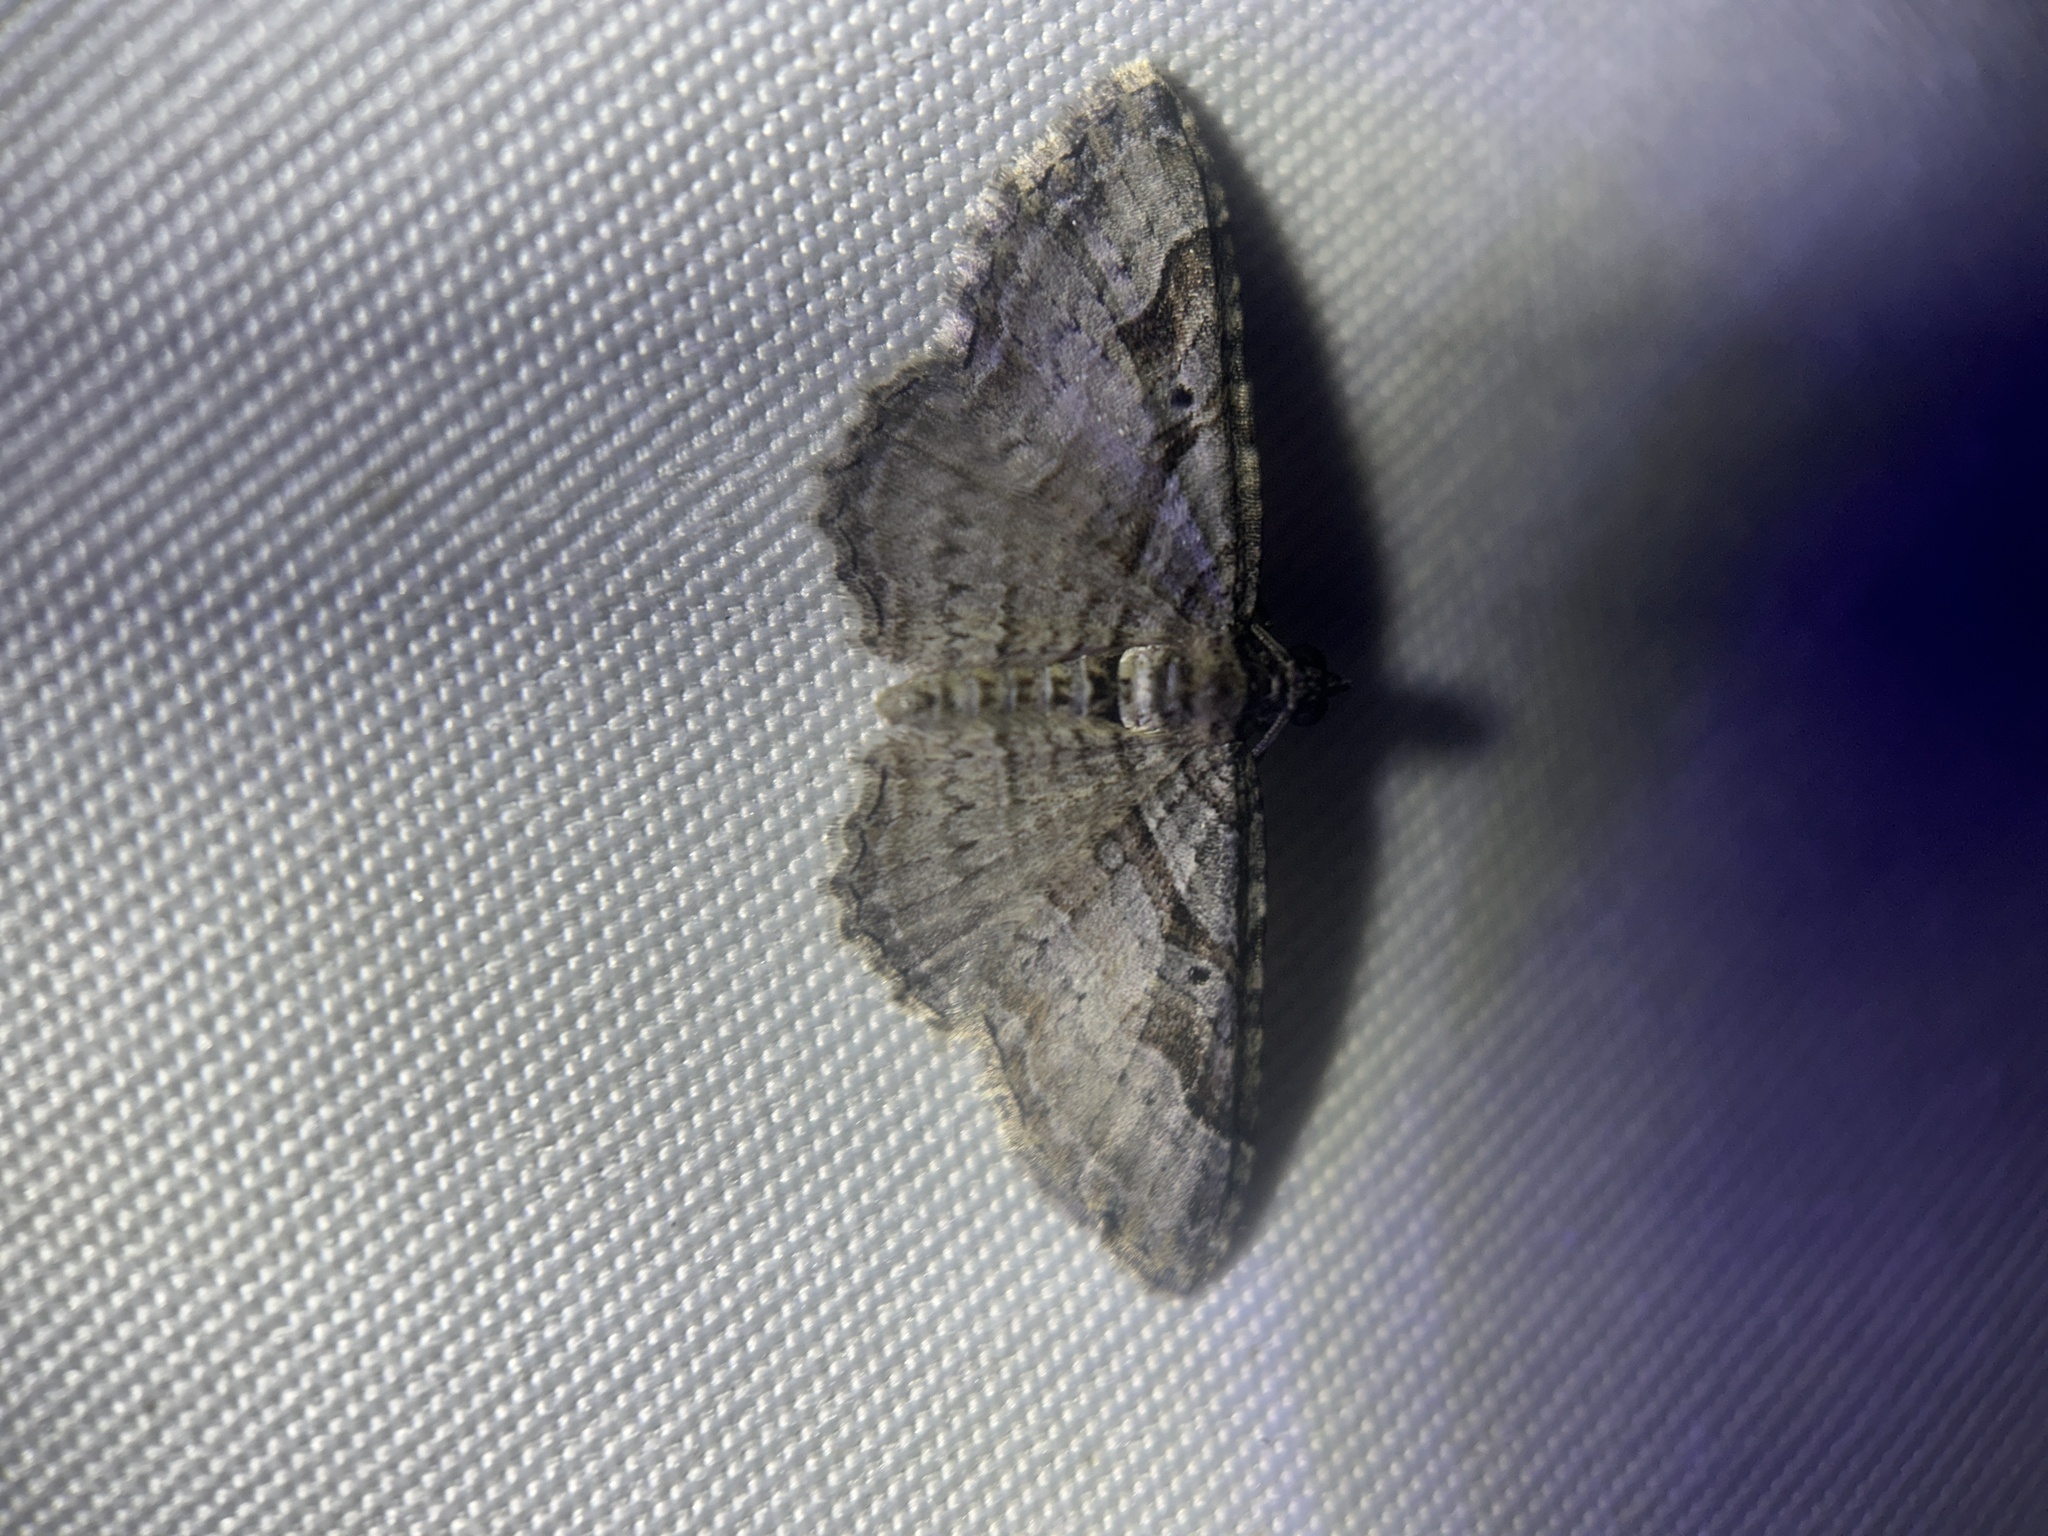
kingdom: Animalia
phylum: Arthropoda
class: Insecta
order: Lepidoptera
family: Geometridae
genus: Costaconvexa
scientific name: Costaconvexa centrostrigaria
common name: Bent-line carpet
